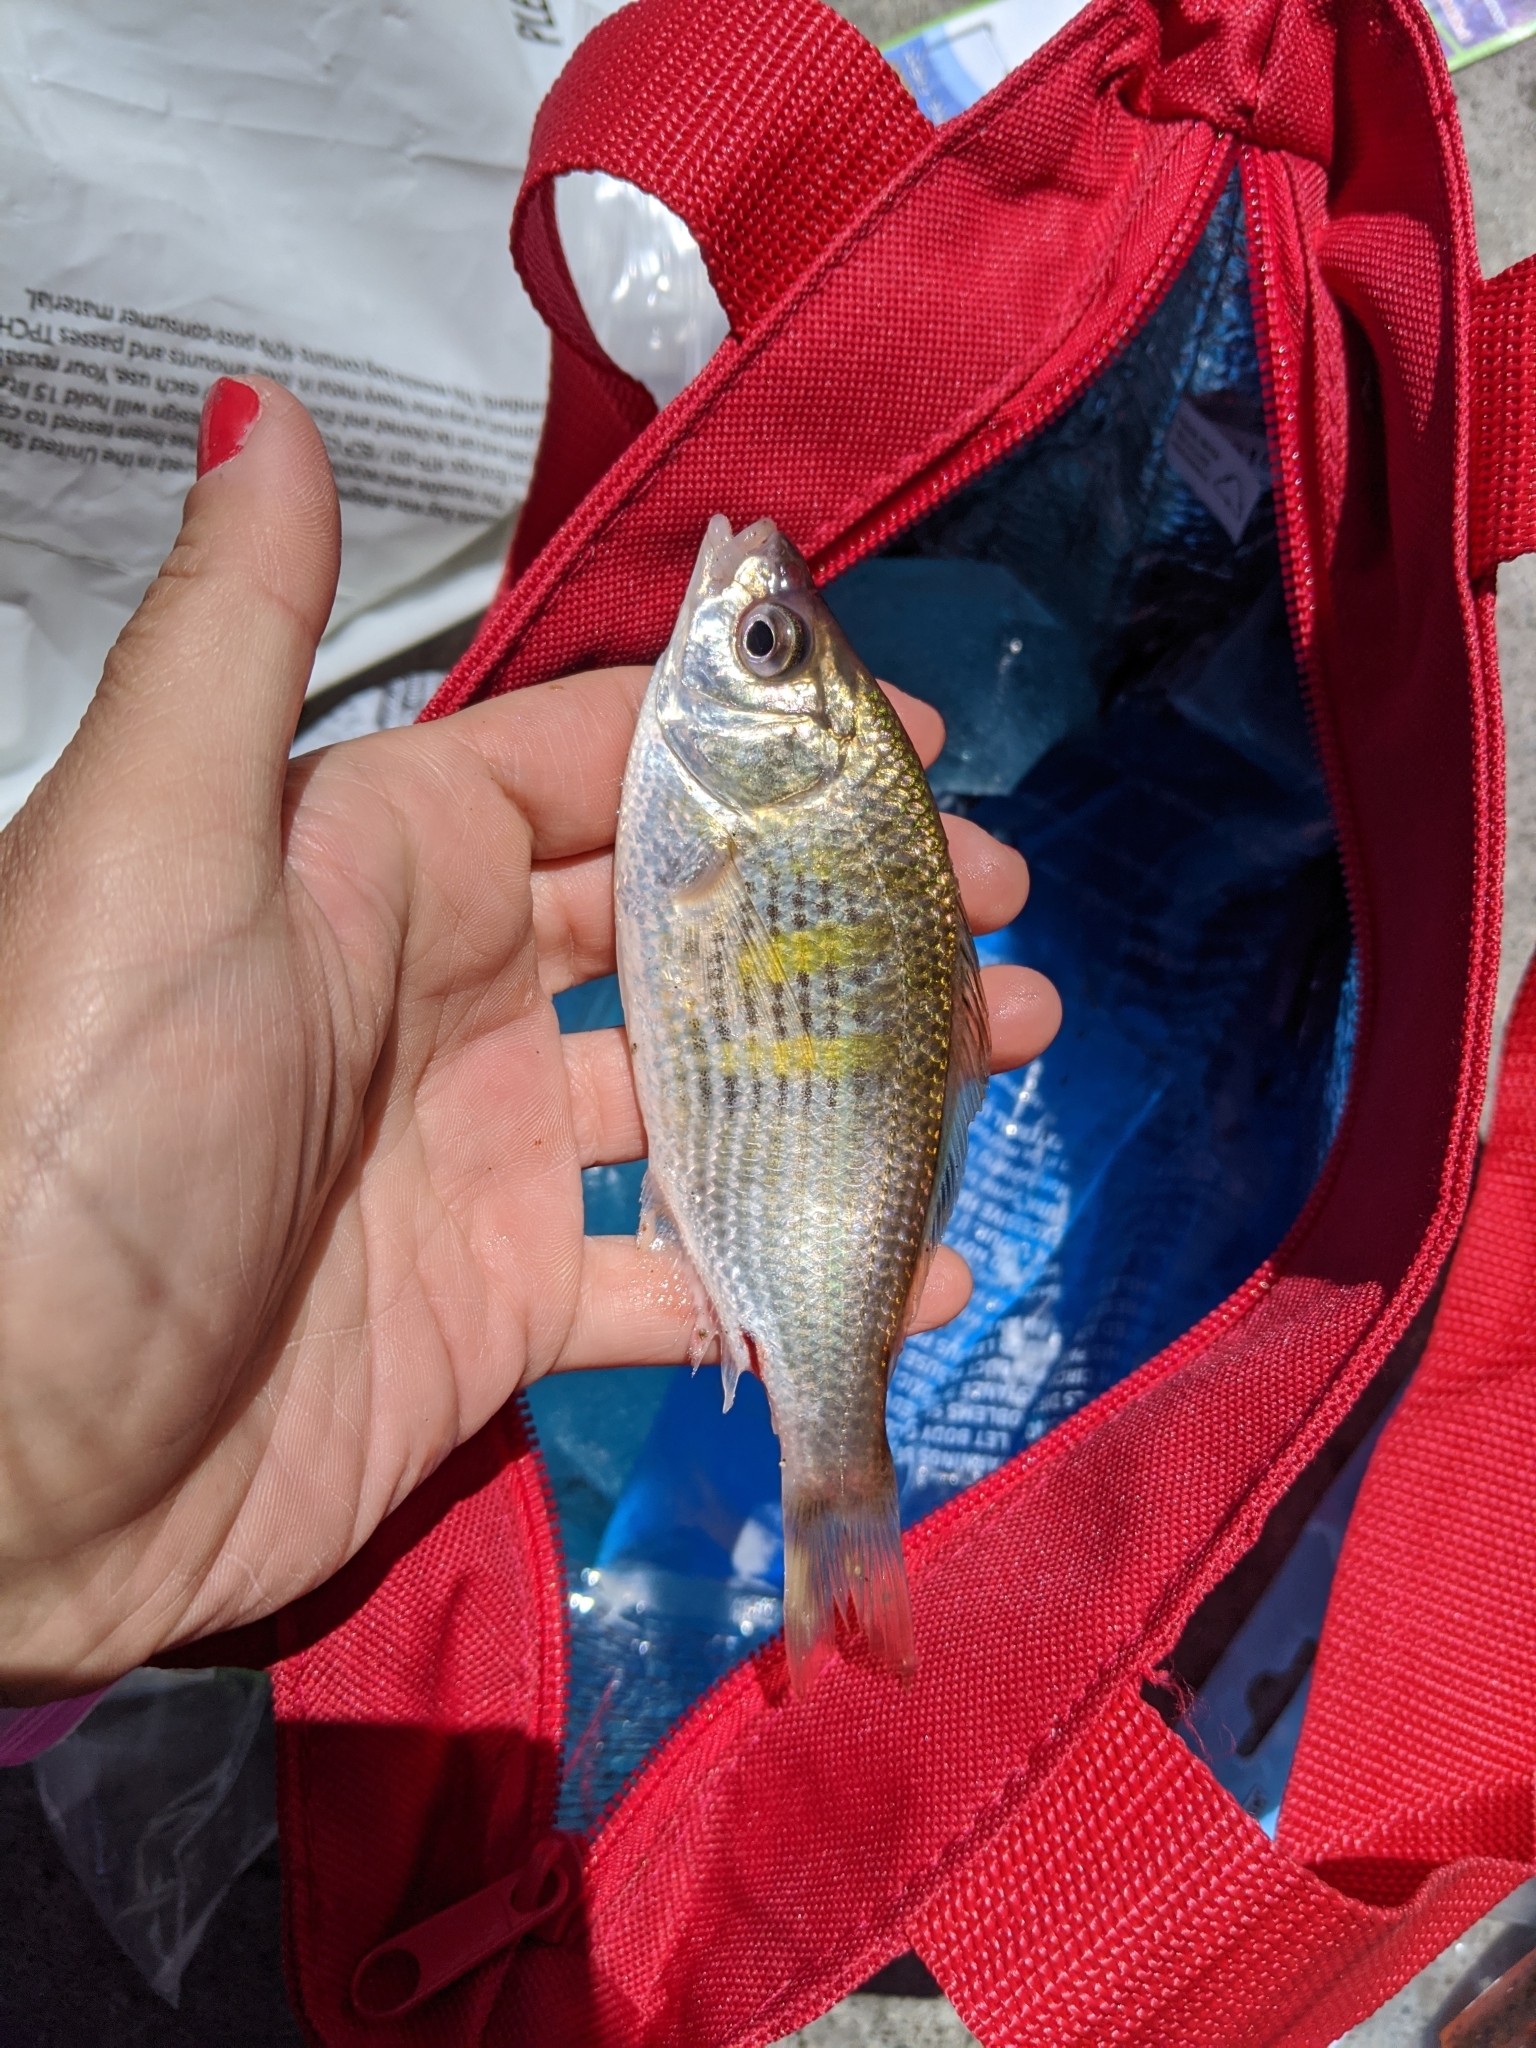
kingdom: Animalia
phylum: Chordata
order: Perciformes
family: Embiotocidae
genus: Cymatogaster
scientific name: Cymatogaster aggregata
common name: Shiner perch
